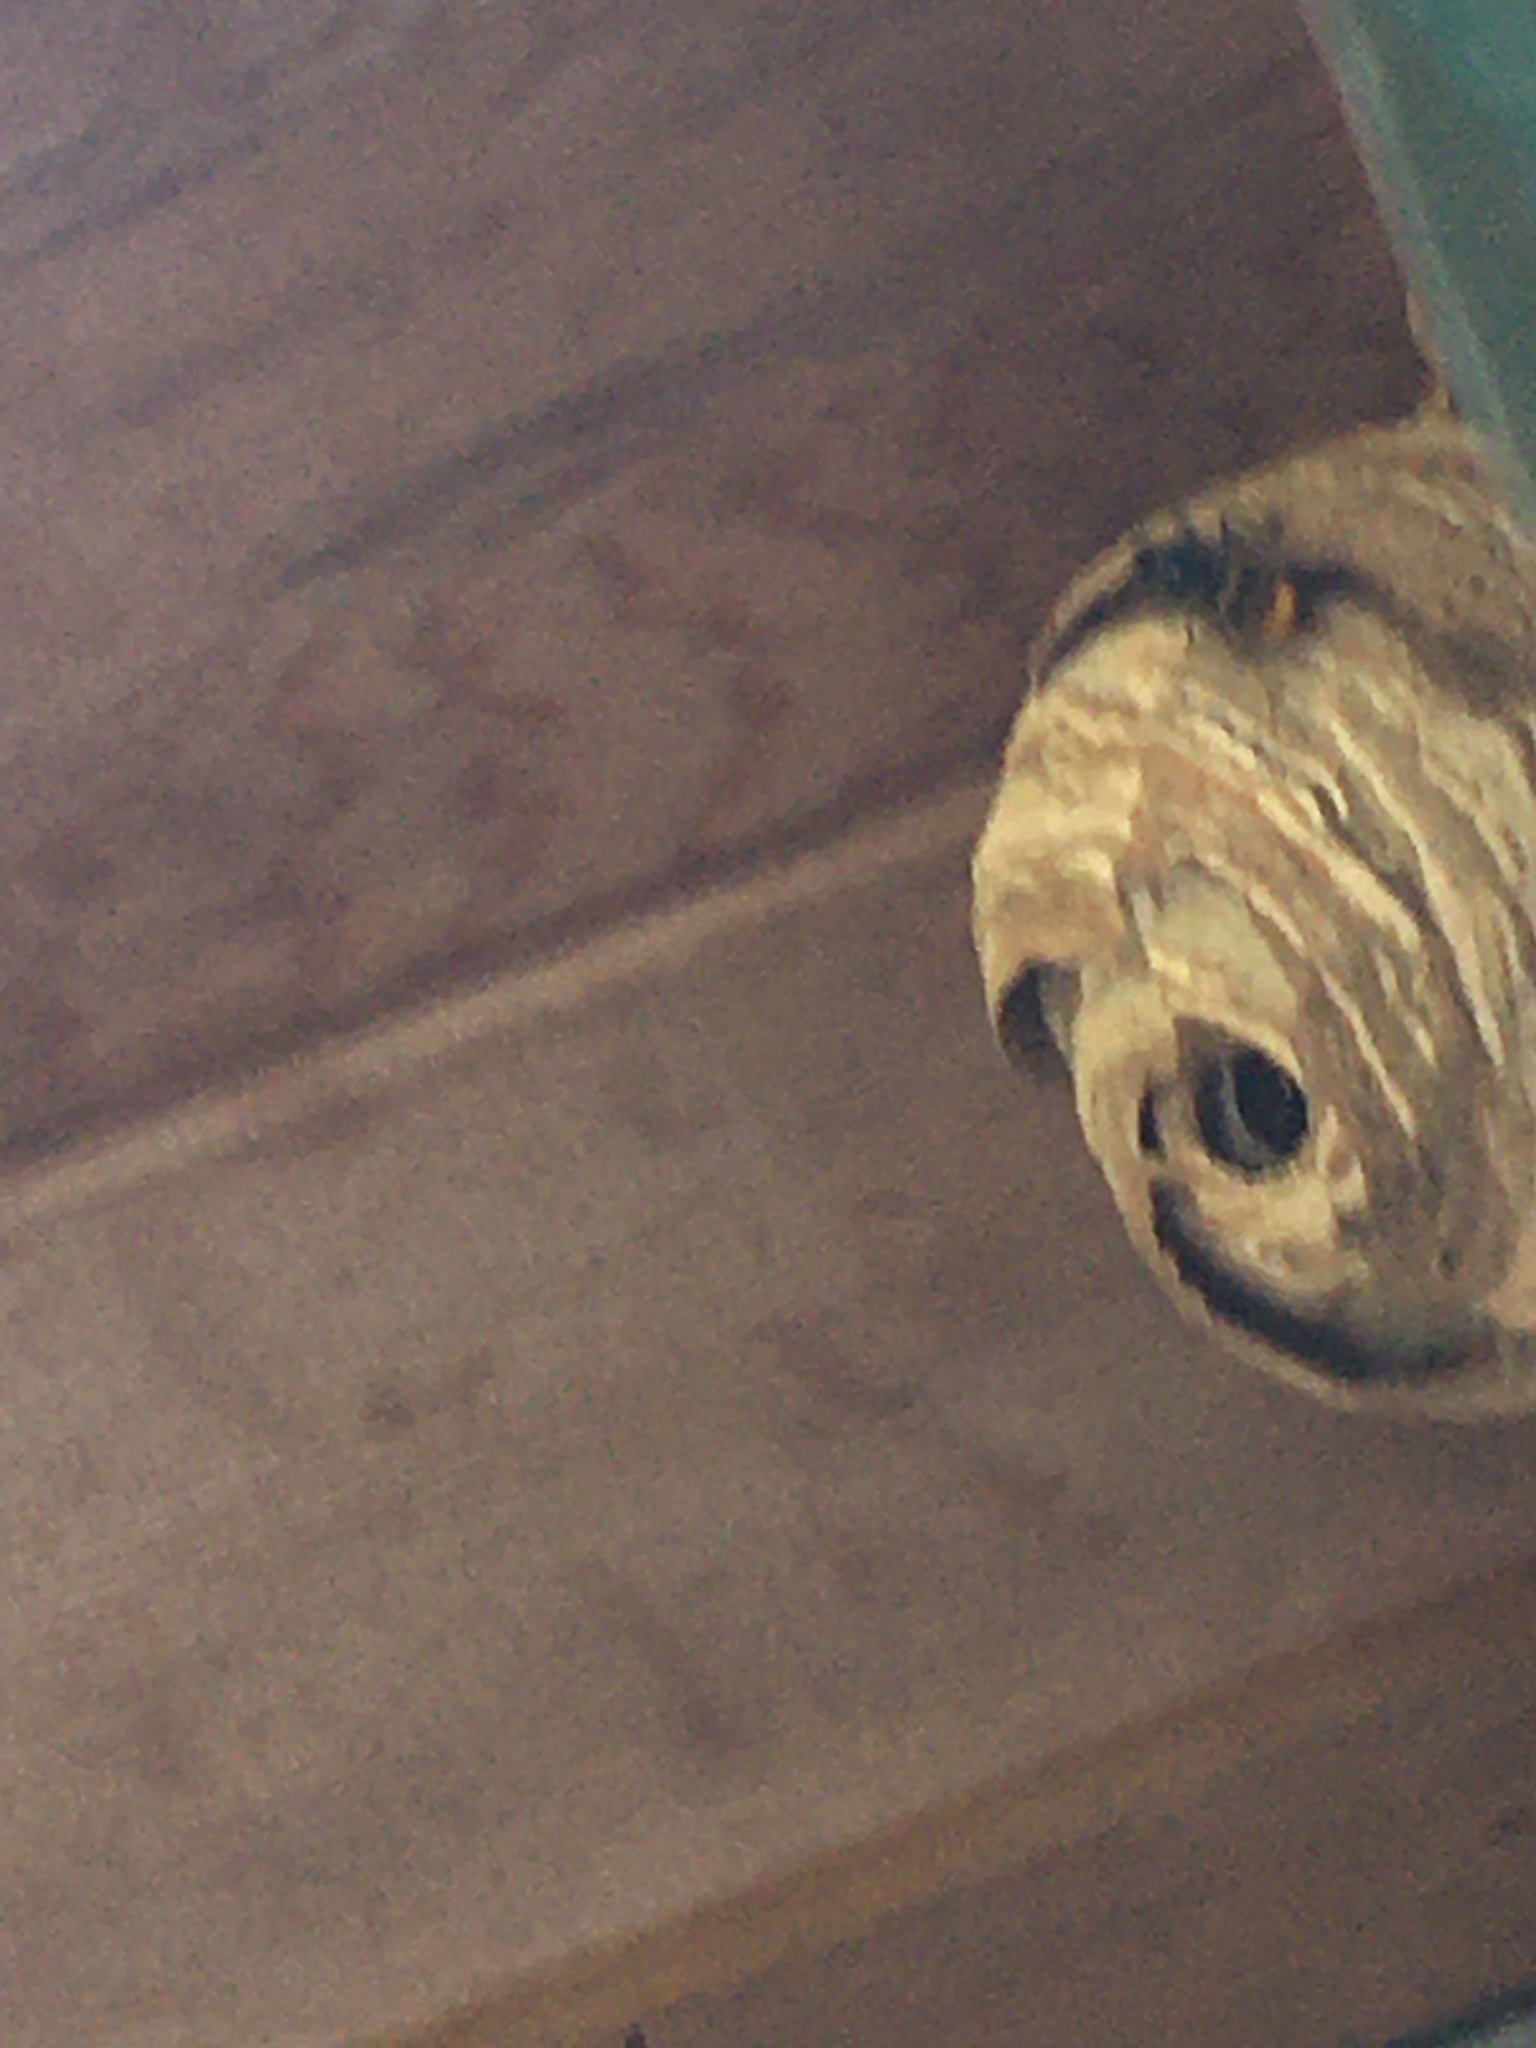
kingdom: Animalia
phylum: Arthropoda
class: Insecta
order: Hymenoptera
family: Vespidae
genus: Vespa
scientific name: Vespa velutina
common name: Asian hornet
